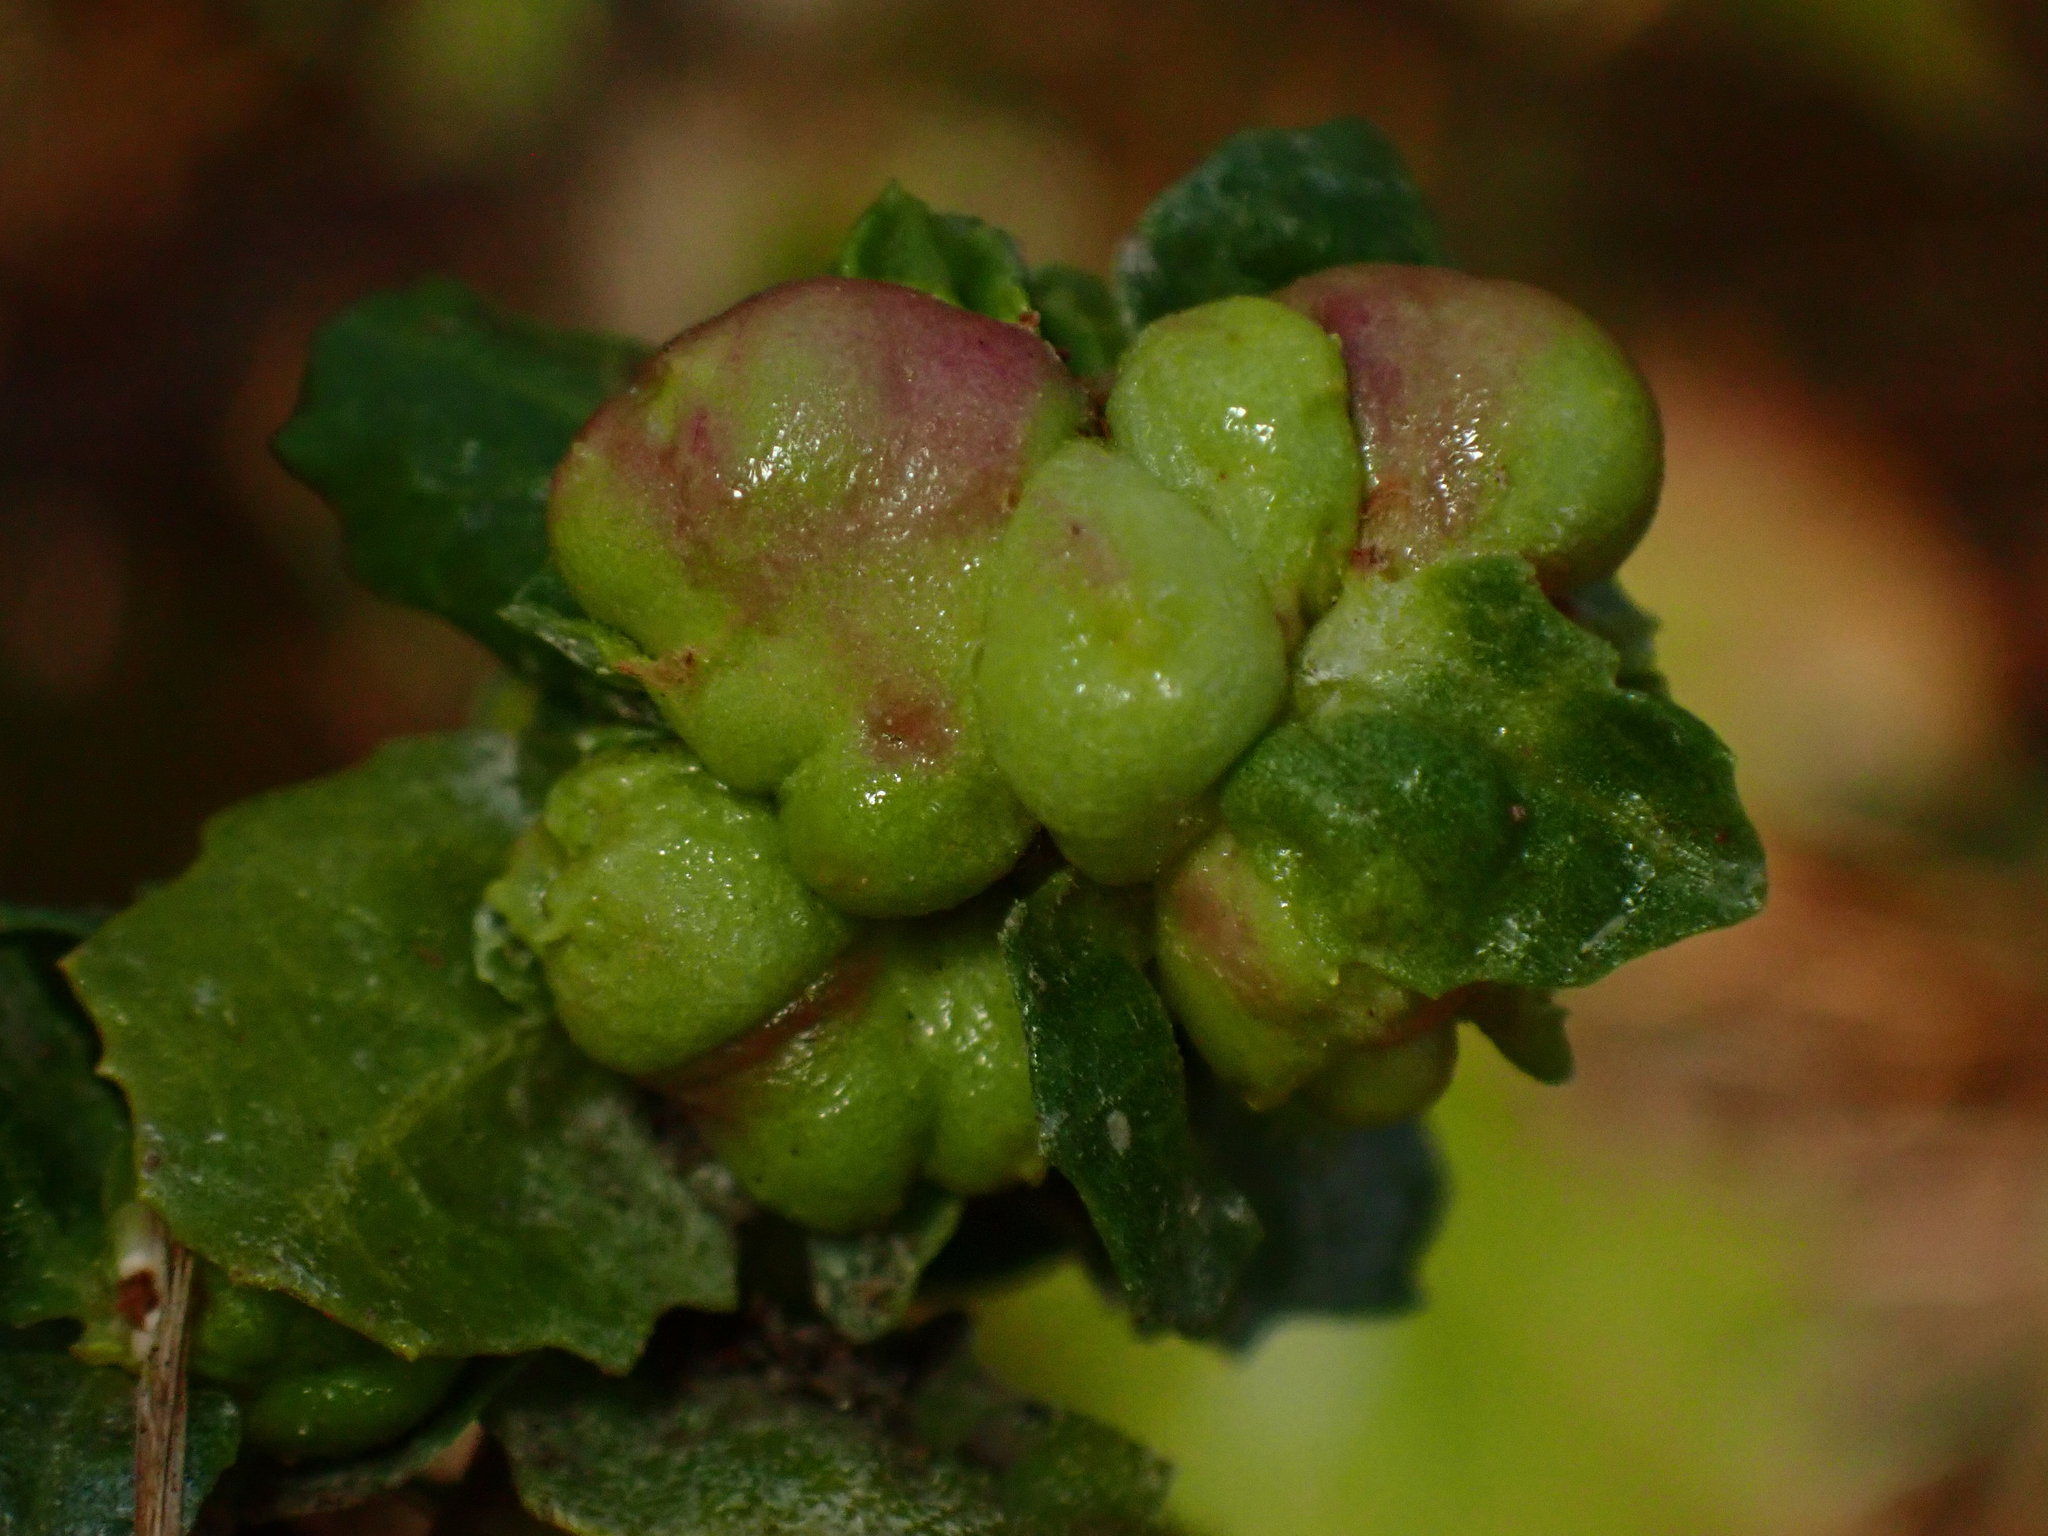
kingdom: Animalia
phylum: Arthropoda
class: Insecta
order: Diptera
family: Cecidomyiidae
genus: Rhopalomyia
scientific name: Rhopalomyia californica
